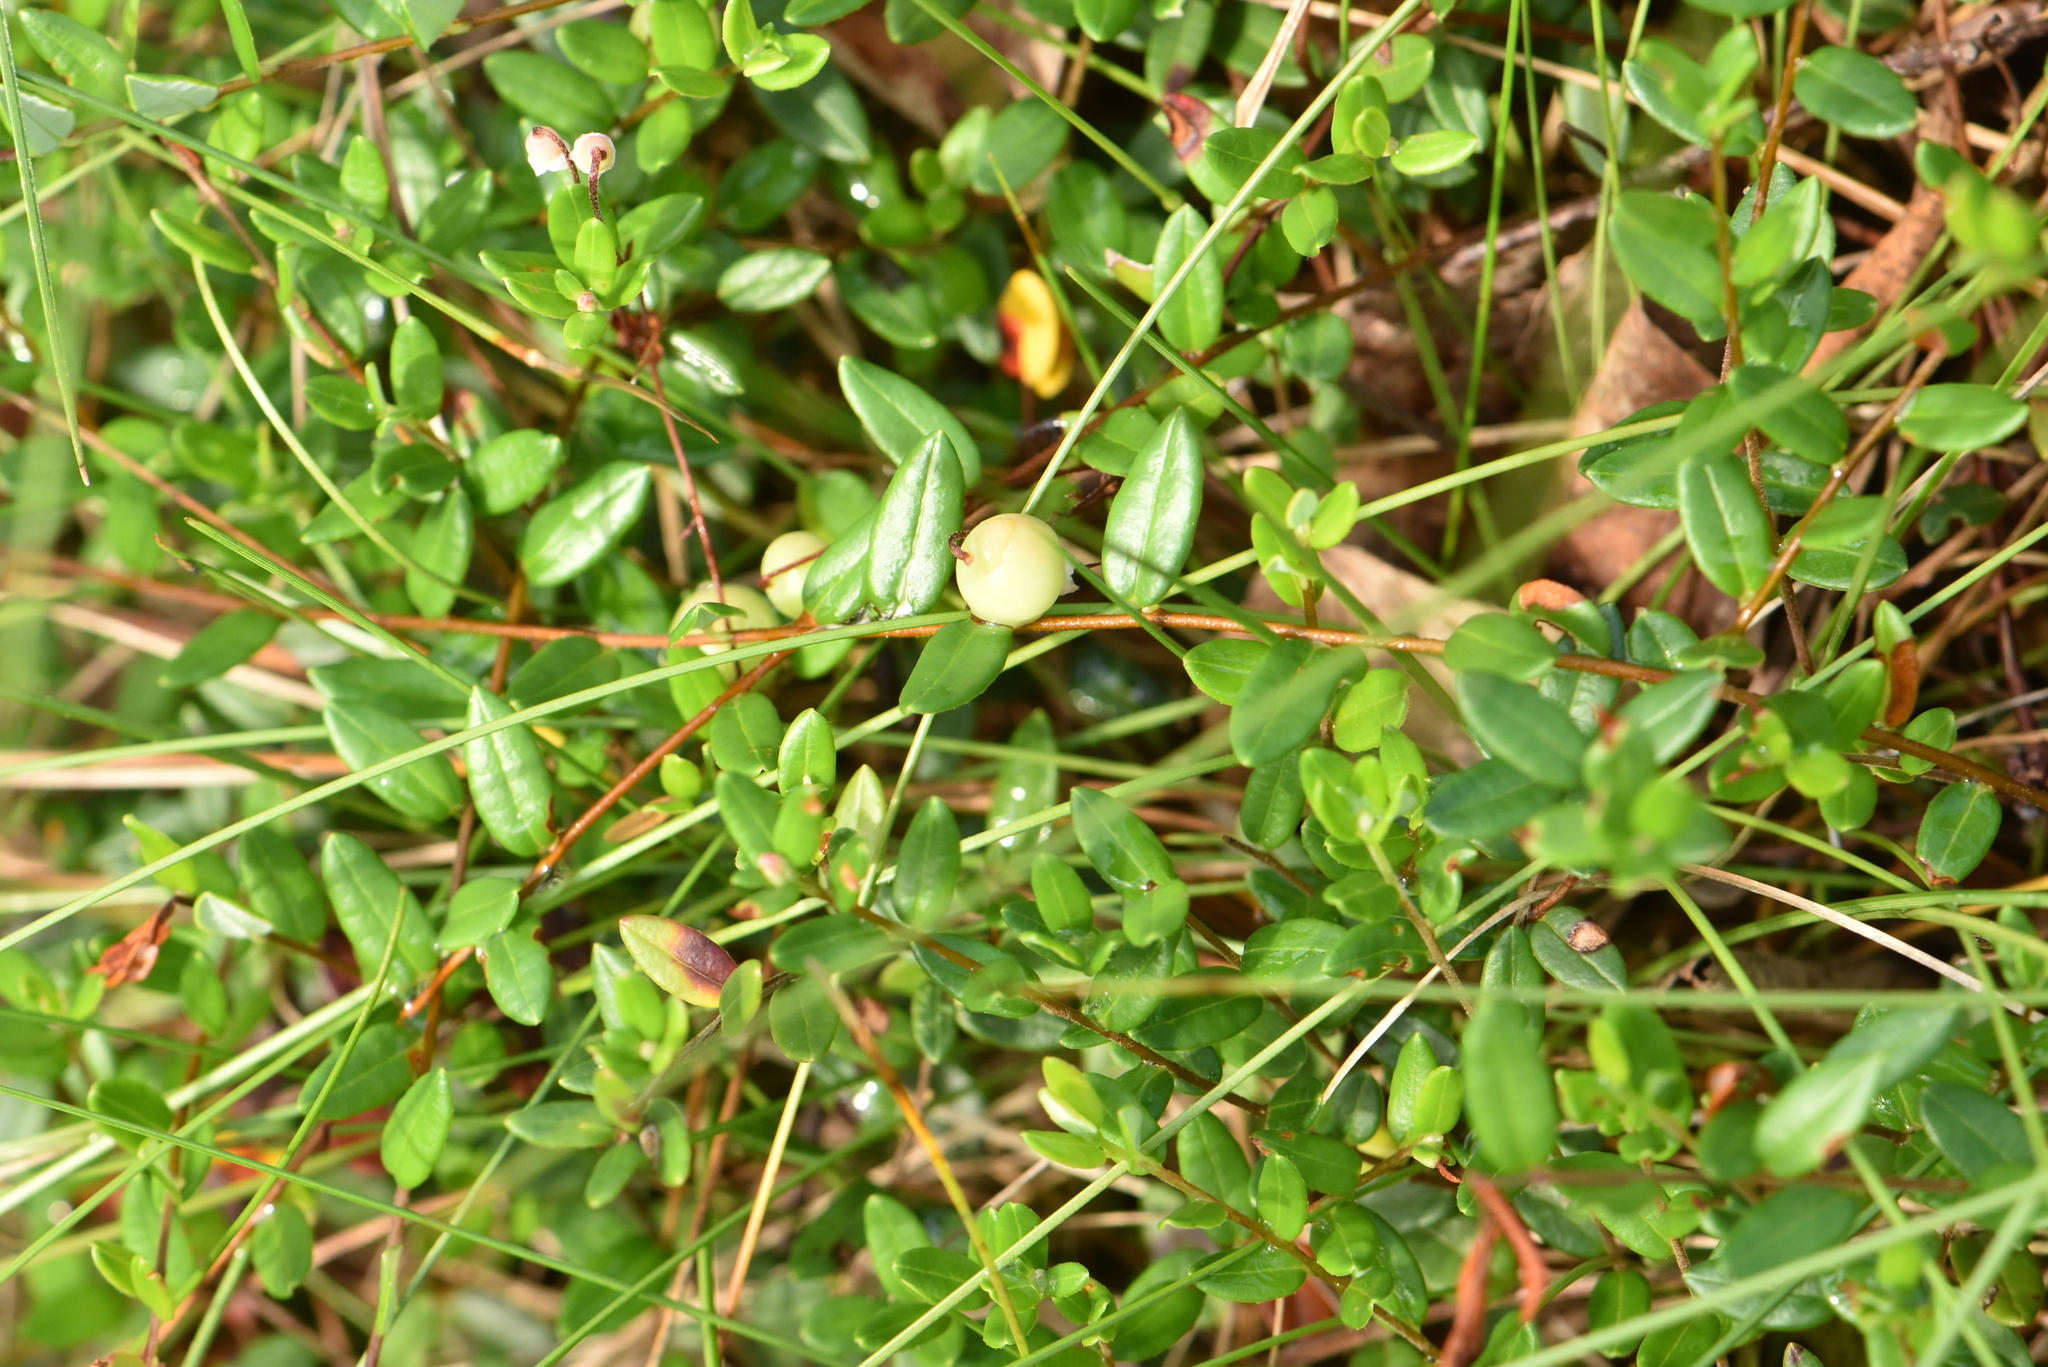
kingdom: Plantae
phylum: Tracheophyta
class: Magnoliopsida
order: Ericales
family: Ericaceae
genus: Vaccinium
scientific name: Vaccinium oxycoccos
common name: Cranberry
